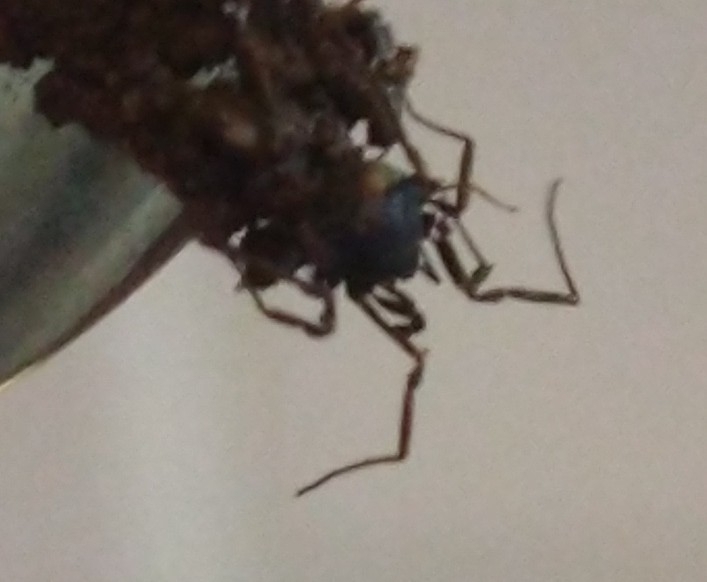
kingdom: Animalia
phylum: Arthropoda
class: Arachnida
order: Opiliones
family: Nemastomatidae
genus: Nemastoma
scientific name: Nemastoma bimaculatum
